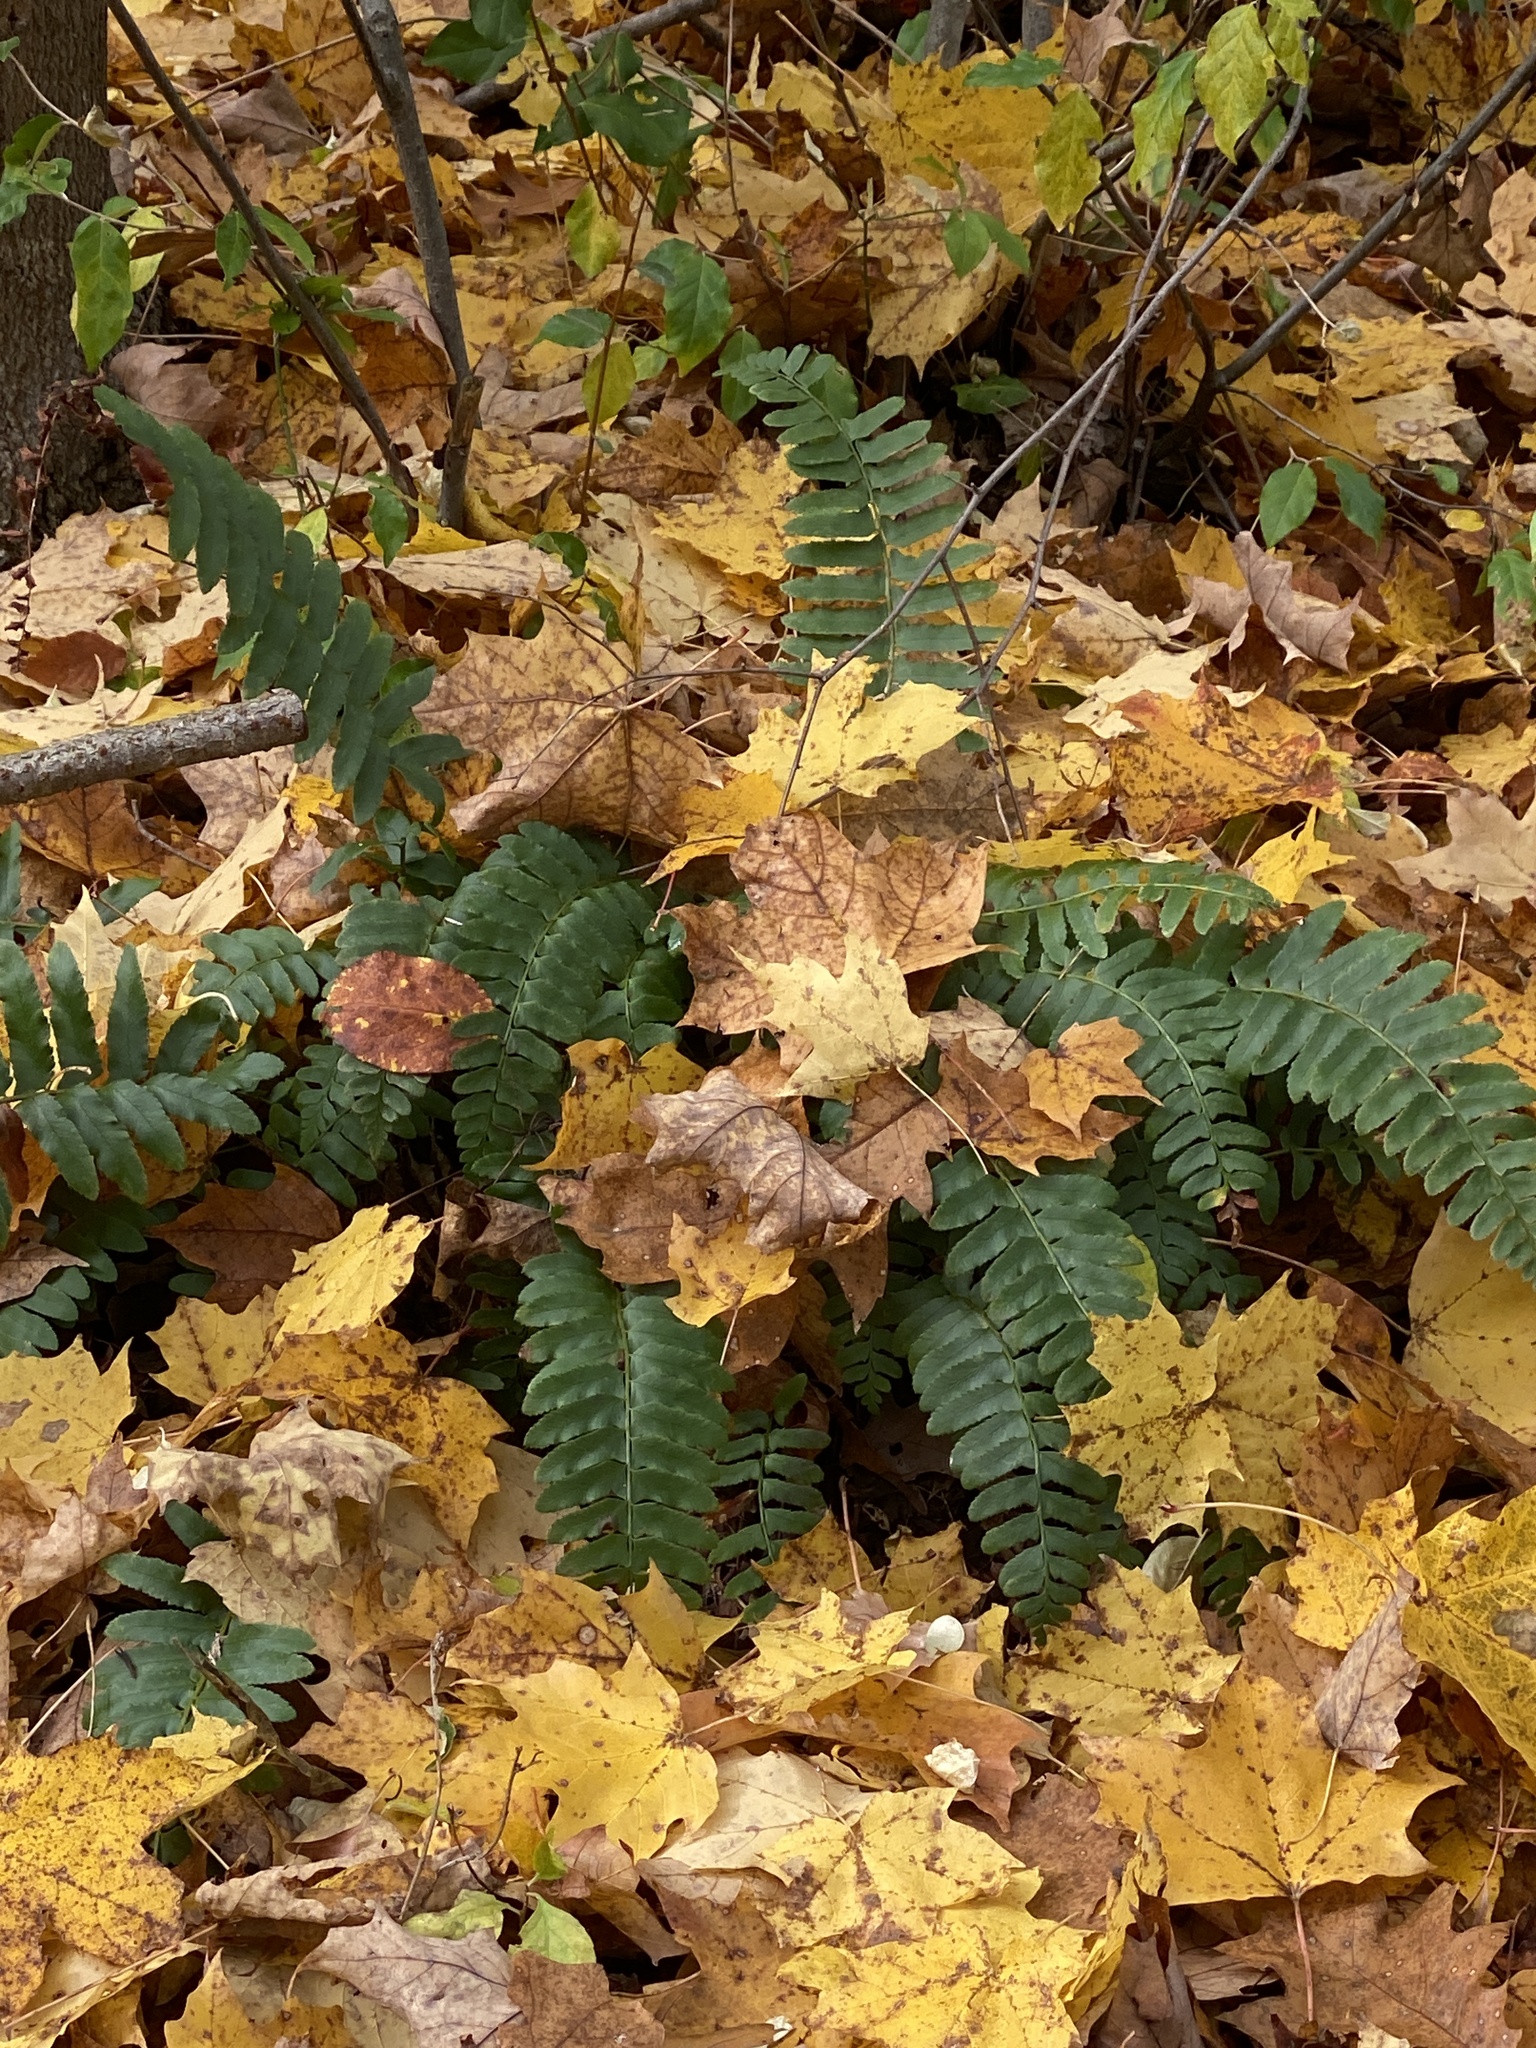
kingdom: Plantae
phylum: Tracheophyta
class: Polypodiopsida
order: Polypodiales
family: Dryopteridaceae
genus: Polystichum
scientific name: Polystichum acrostichoides
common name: Christmas fern
